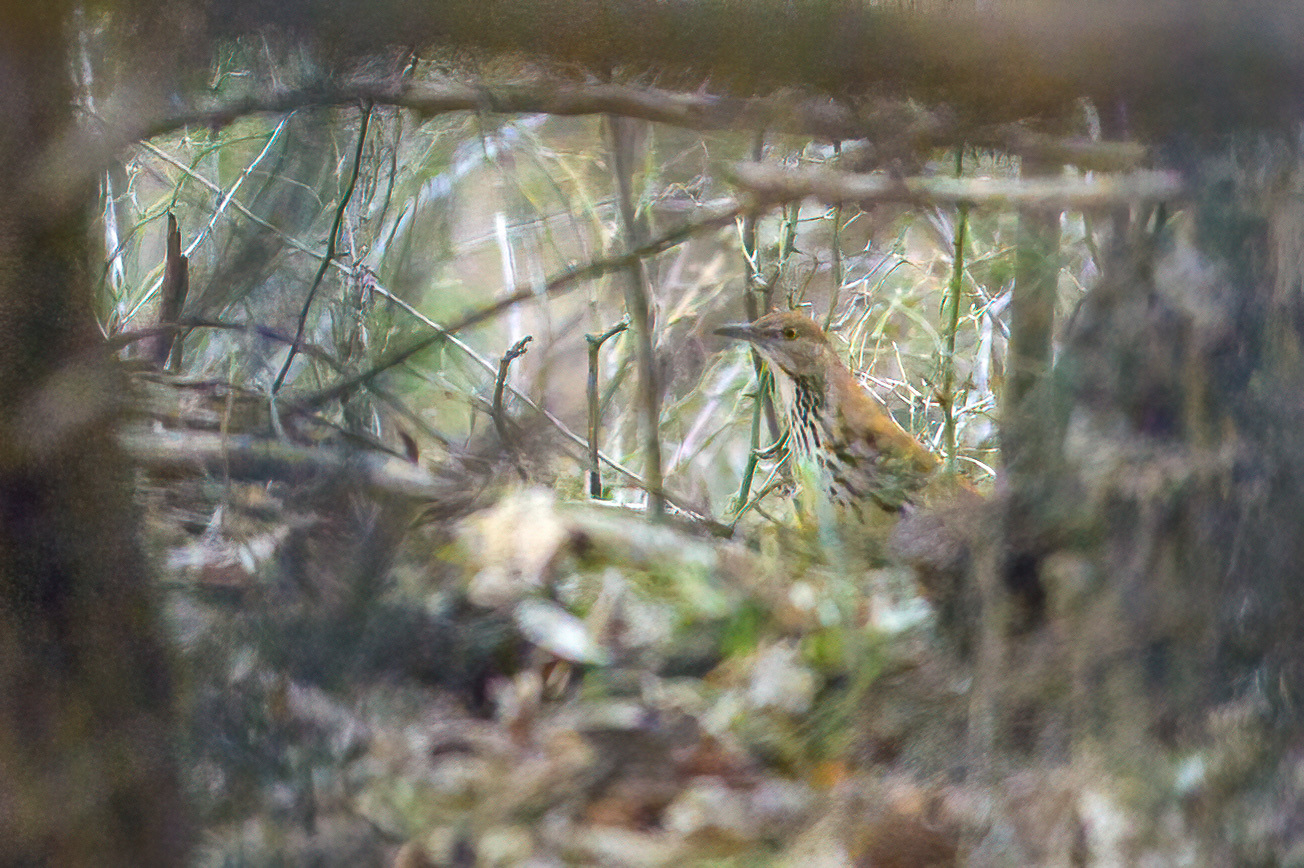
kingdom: Animalia
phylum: Chordata
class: Aves
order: Passeriformes
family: Mimidae
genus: Toxostoma
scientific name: Toxostoma rufum
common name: Brown thrasher
